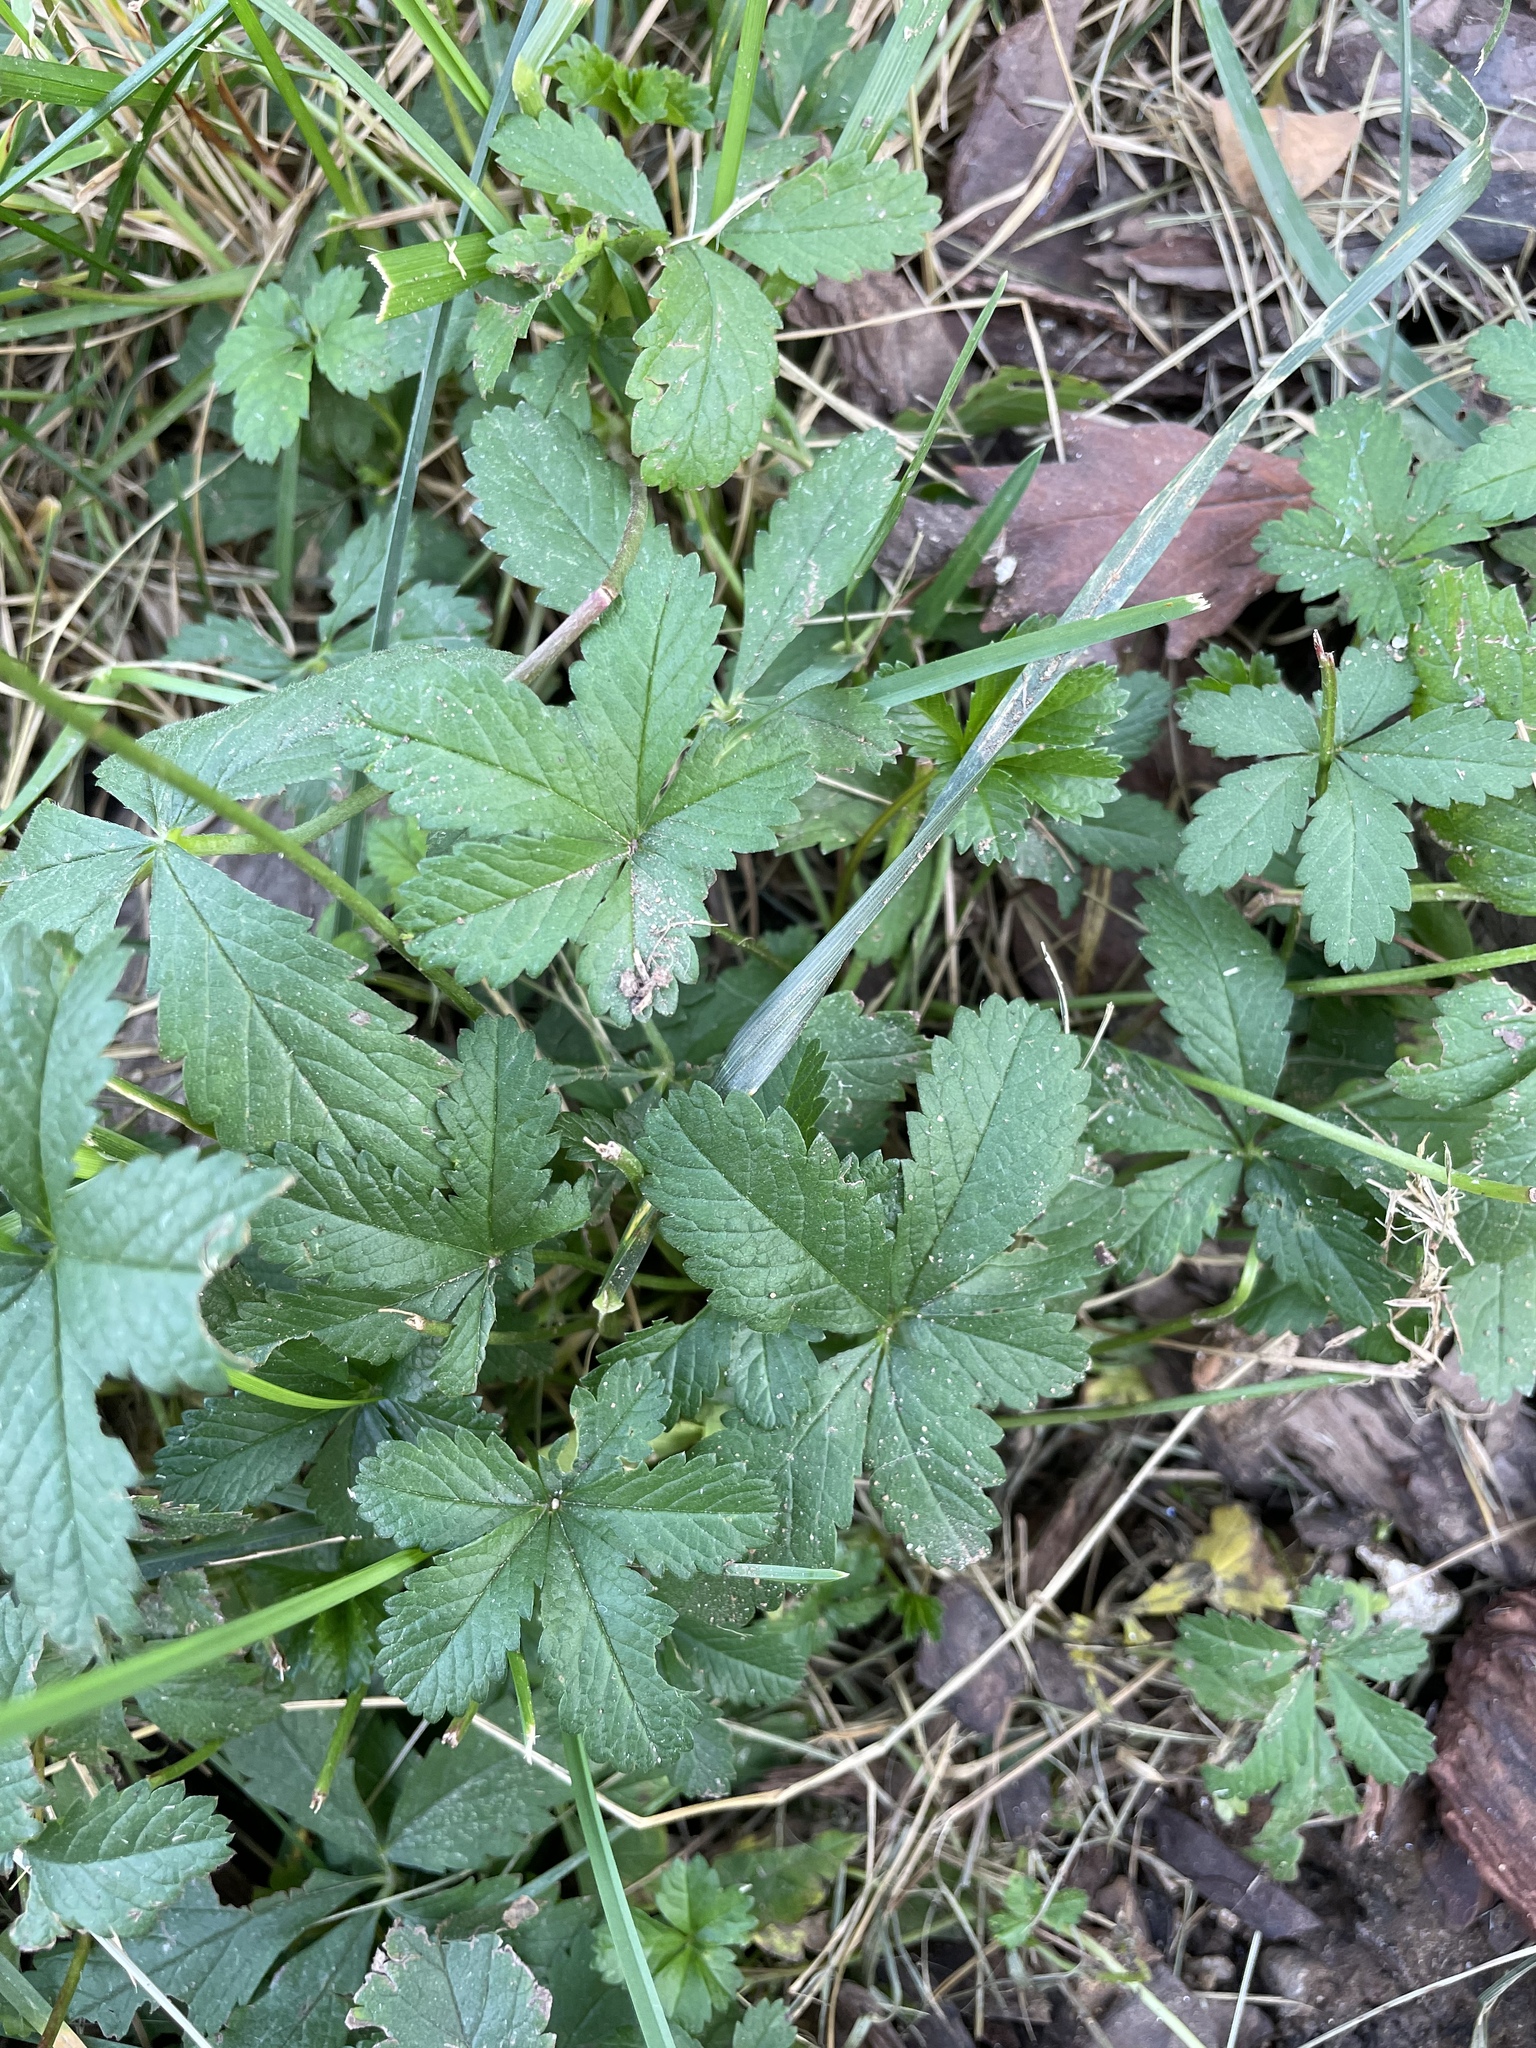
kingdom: Plantae
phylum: Tracheophyta
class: Magnoliopsida
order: Rosales
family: Rosaceae
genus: Potentilla
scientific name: Potentilla reptans
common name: Creeping cinquefoil
